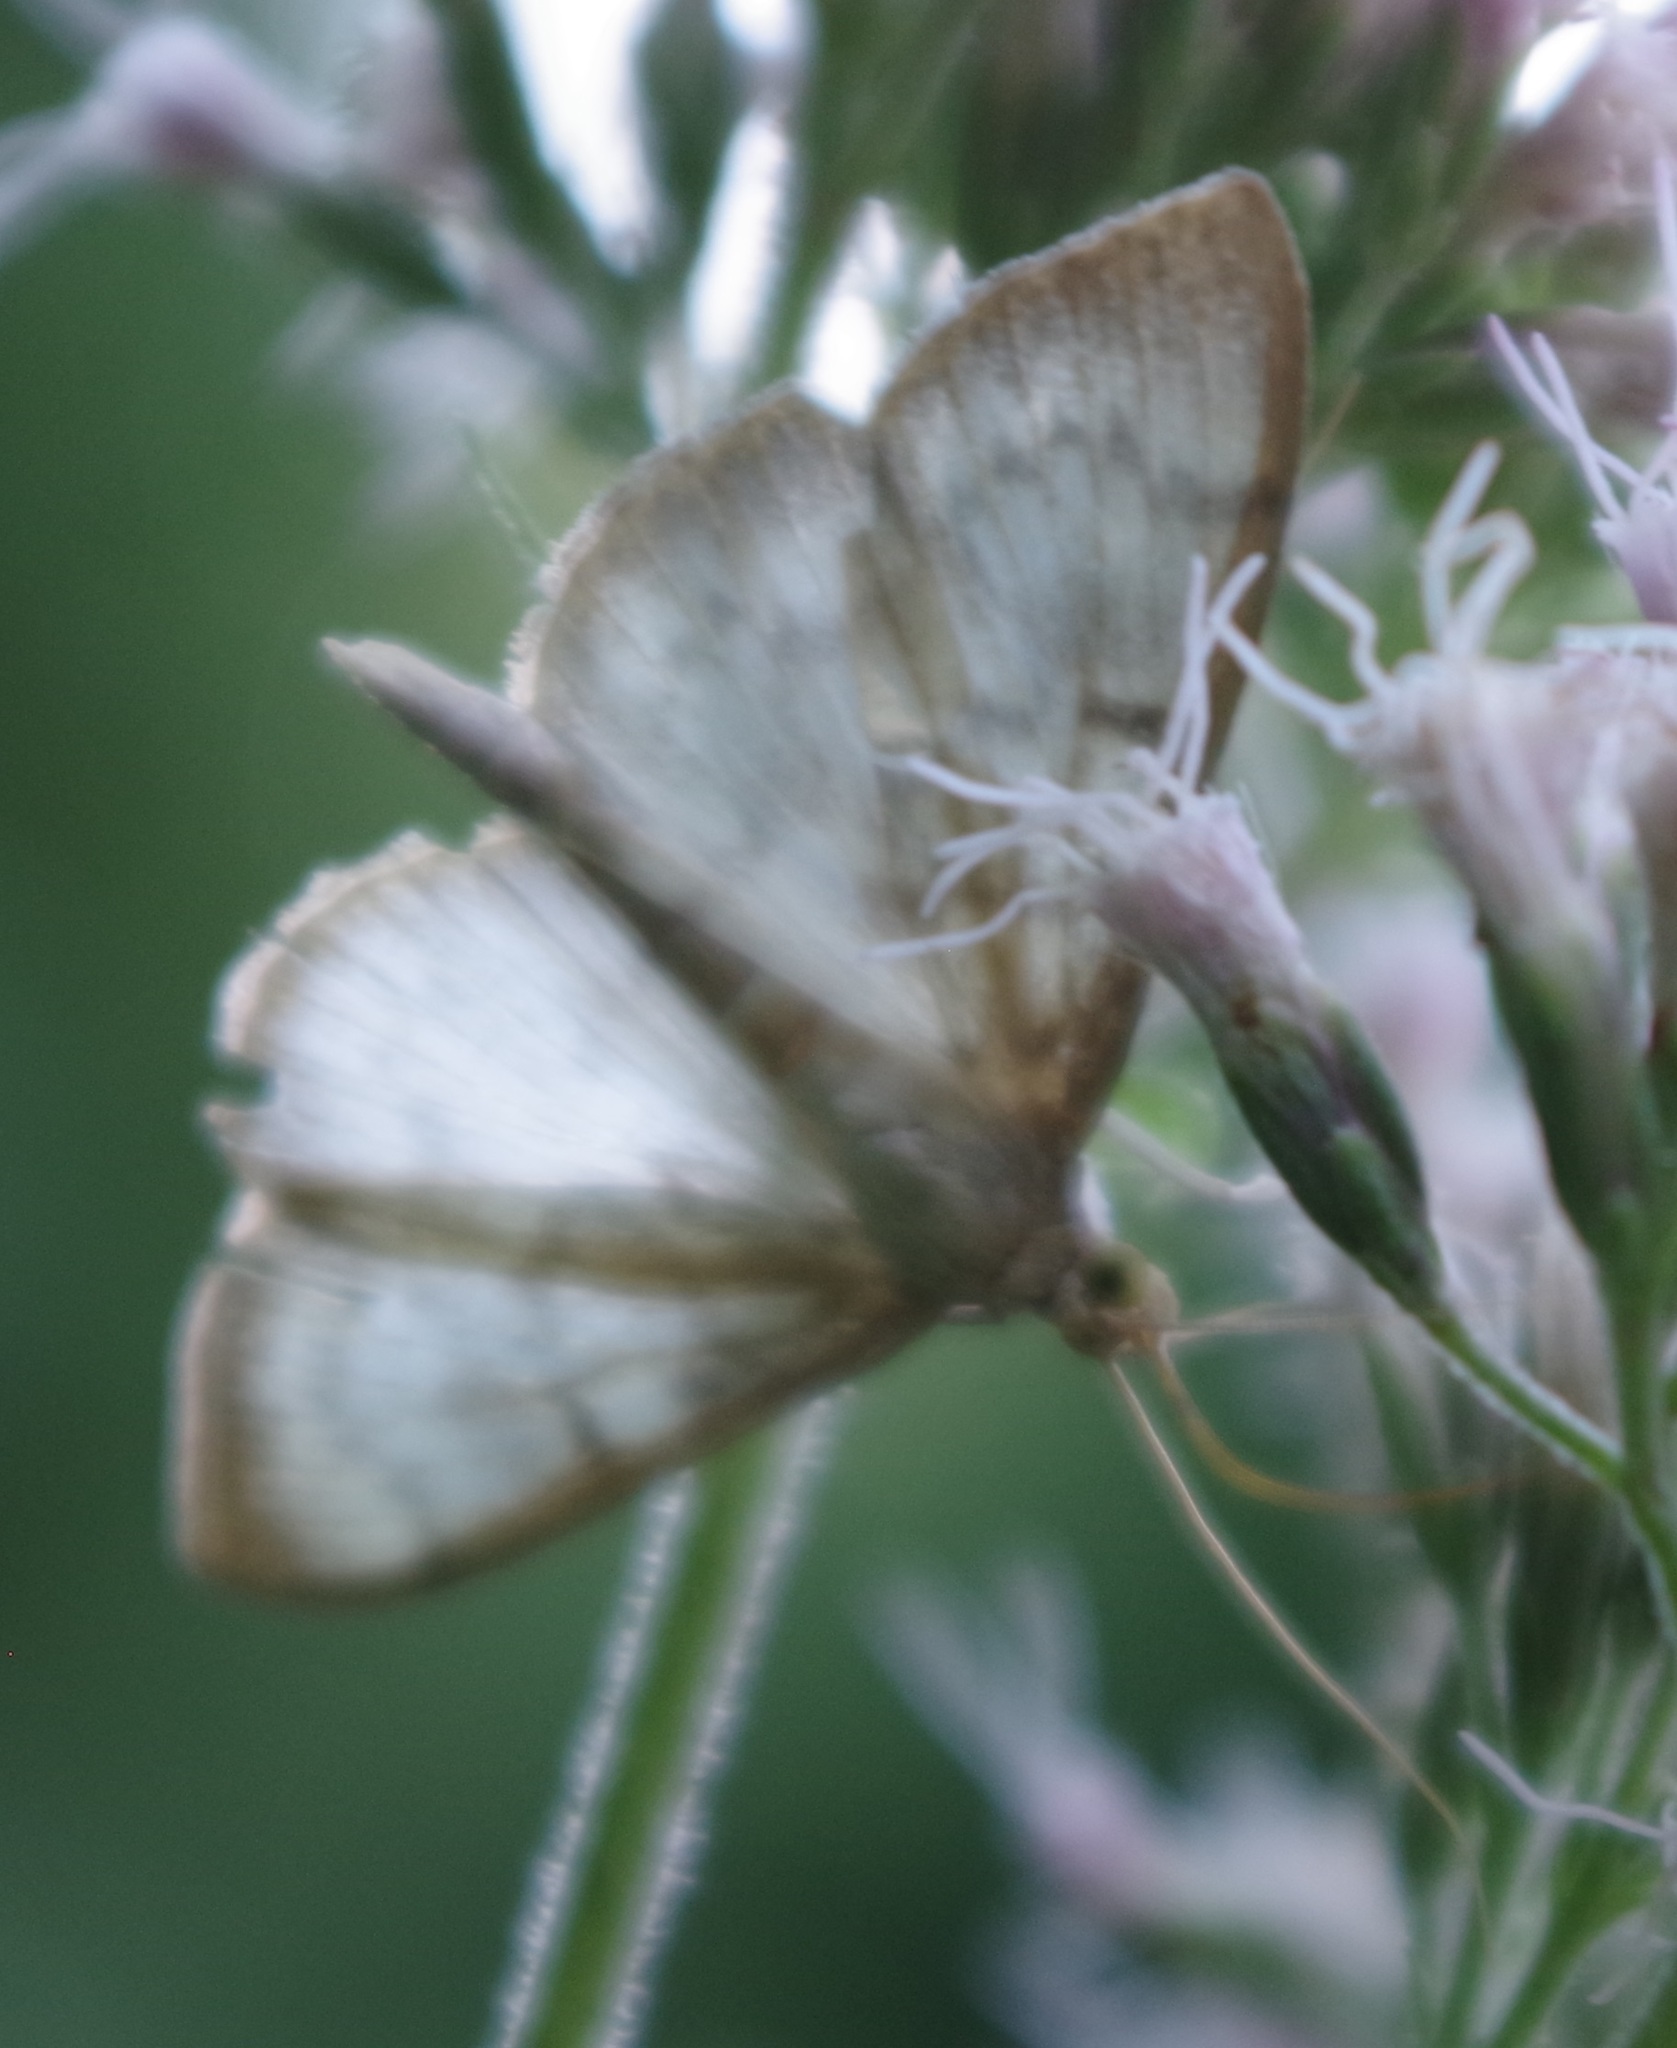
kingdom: Animalia
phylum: Arthropoda
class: Insecta
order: Lepidoptera
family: Crambidae
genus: Patania
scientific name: Patania ruralis
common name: Mother of pearl
